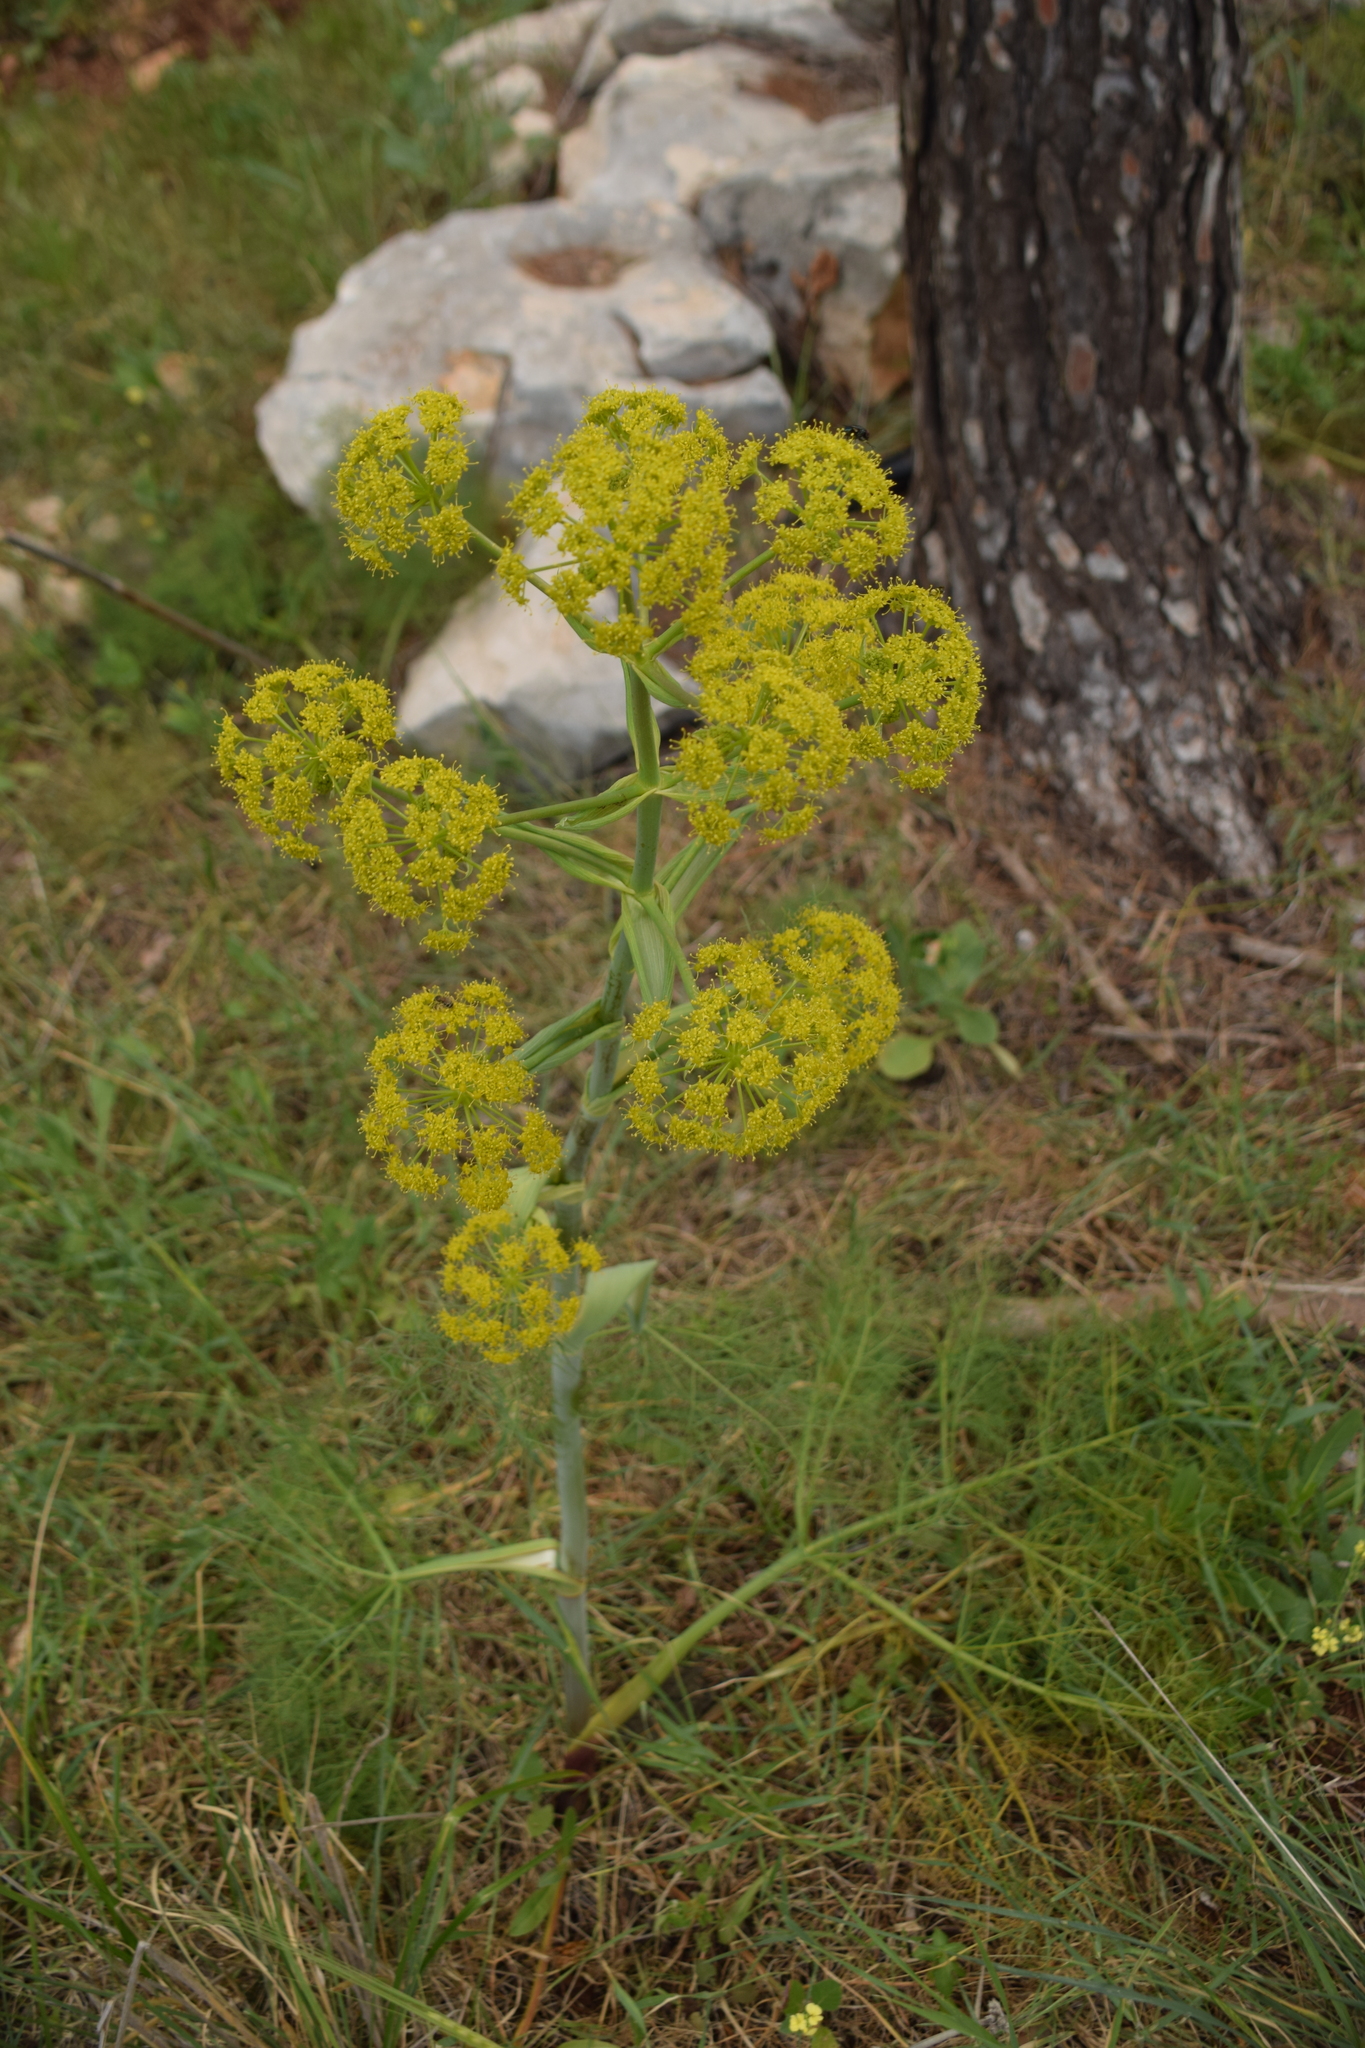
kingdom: Plantae
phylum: Tracheophyta
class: Magnoliopsida
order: Apiales
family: Apiaceae
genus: Ferula
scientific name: Ferula communis
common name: Giant fennel
